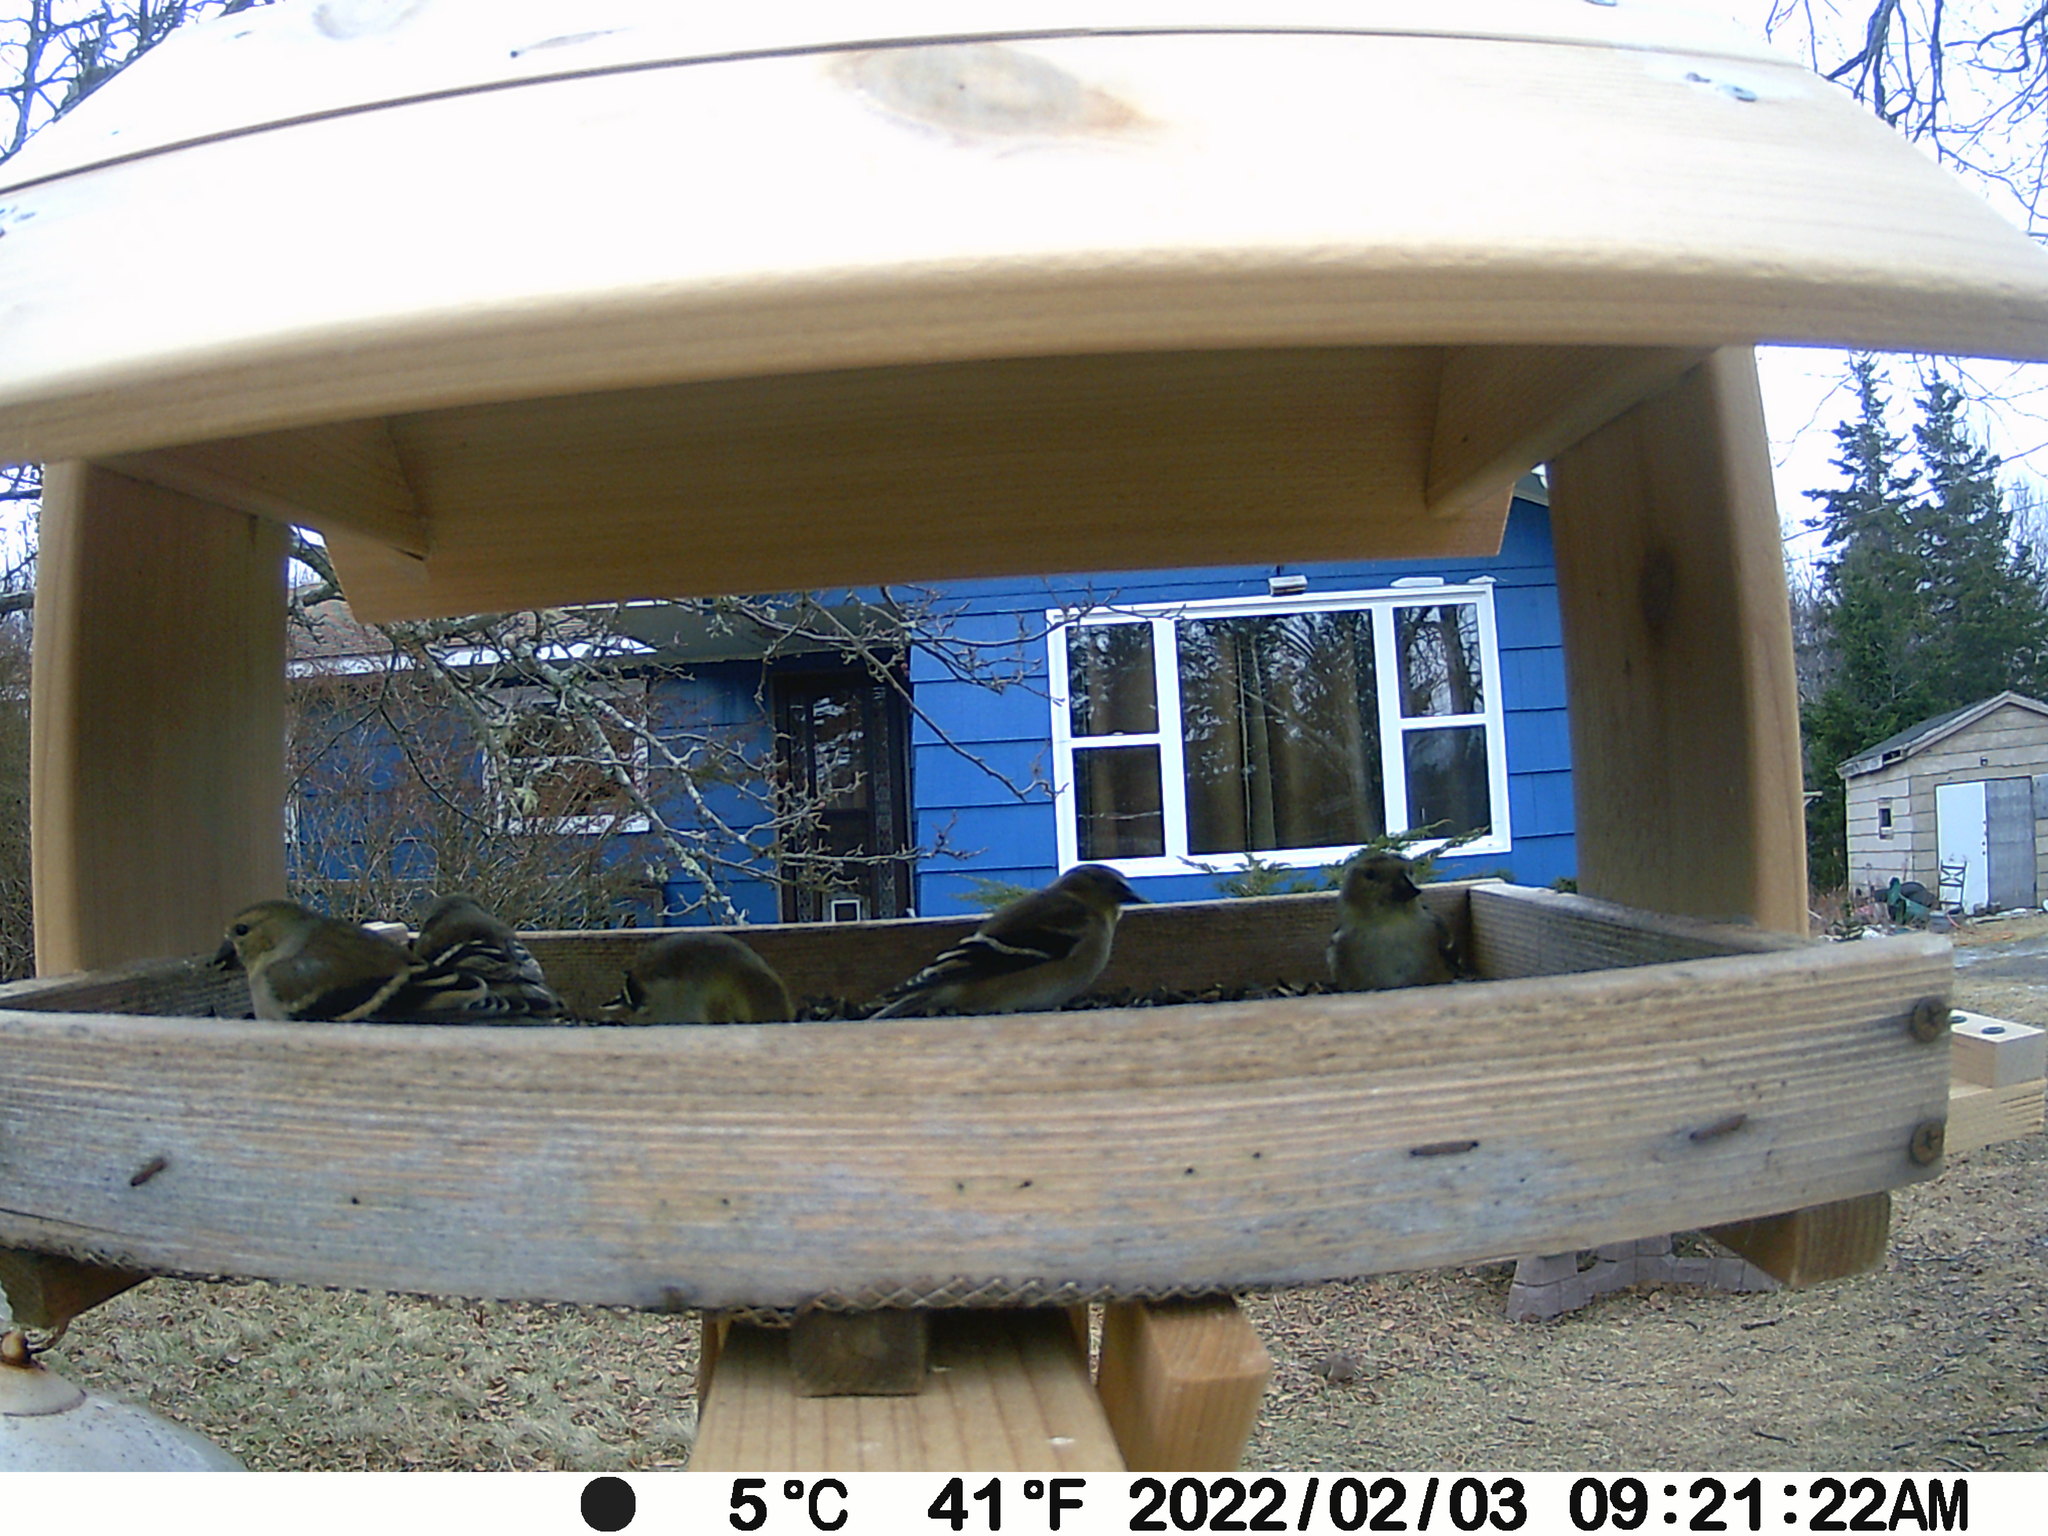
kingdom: Animalia
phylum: Chordata
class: Aves
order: Columbiformes
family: Columbidae
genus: Zenaida
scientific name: Zenaida macroura
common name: Mourning dove
